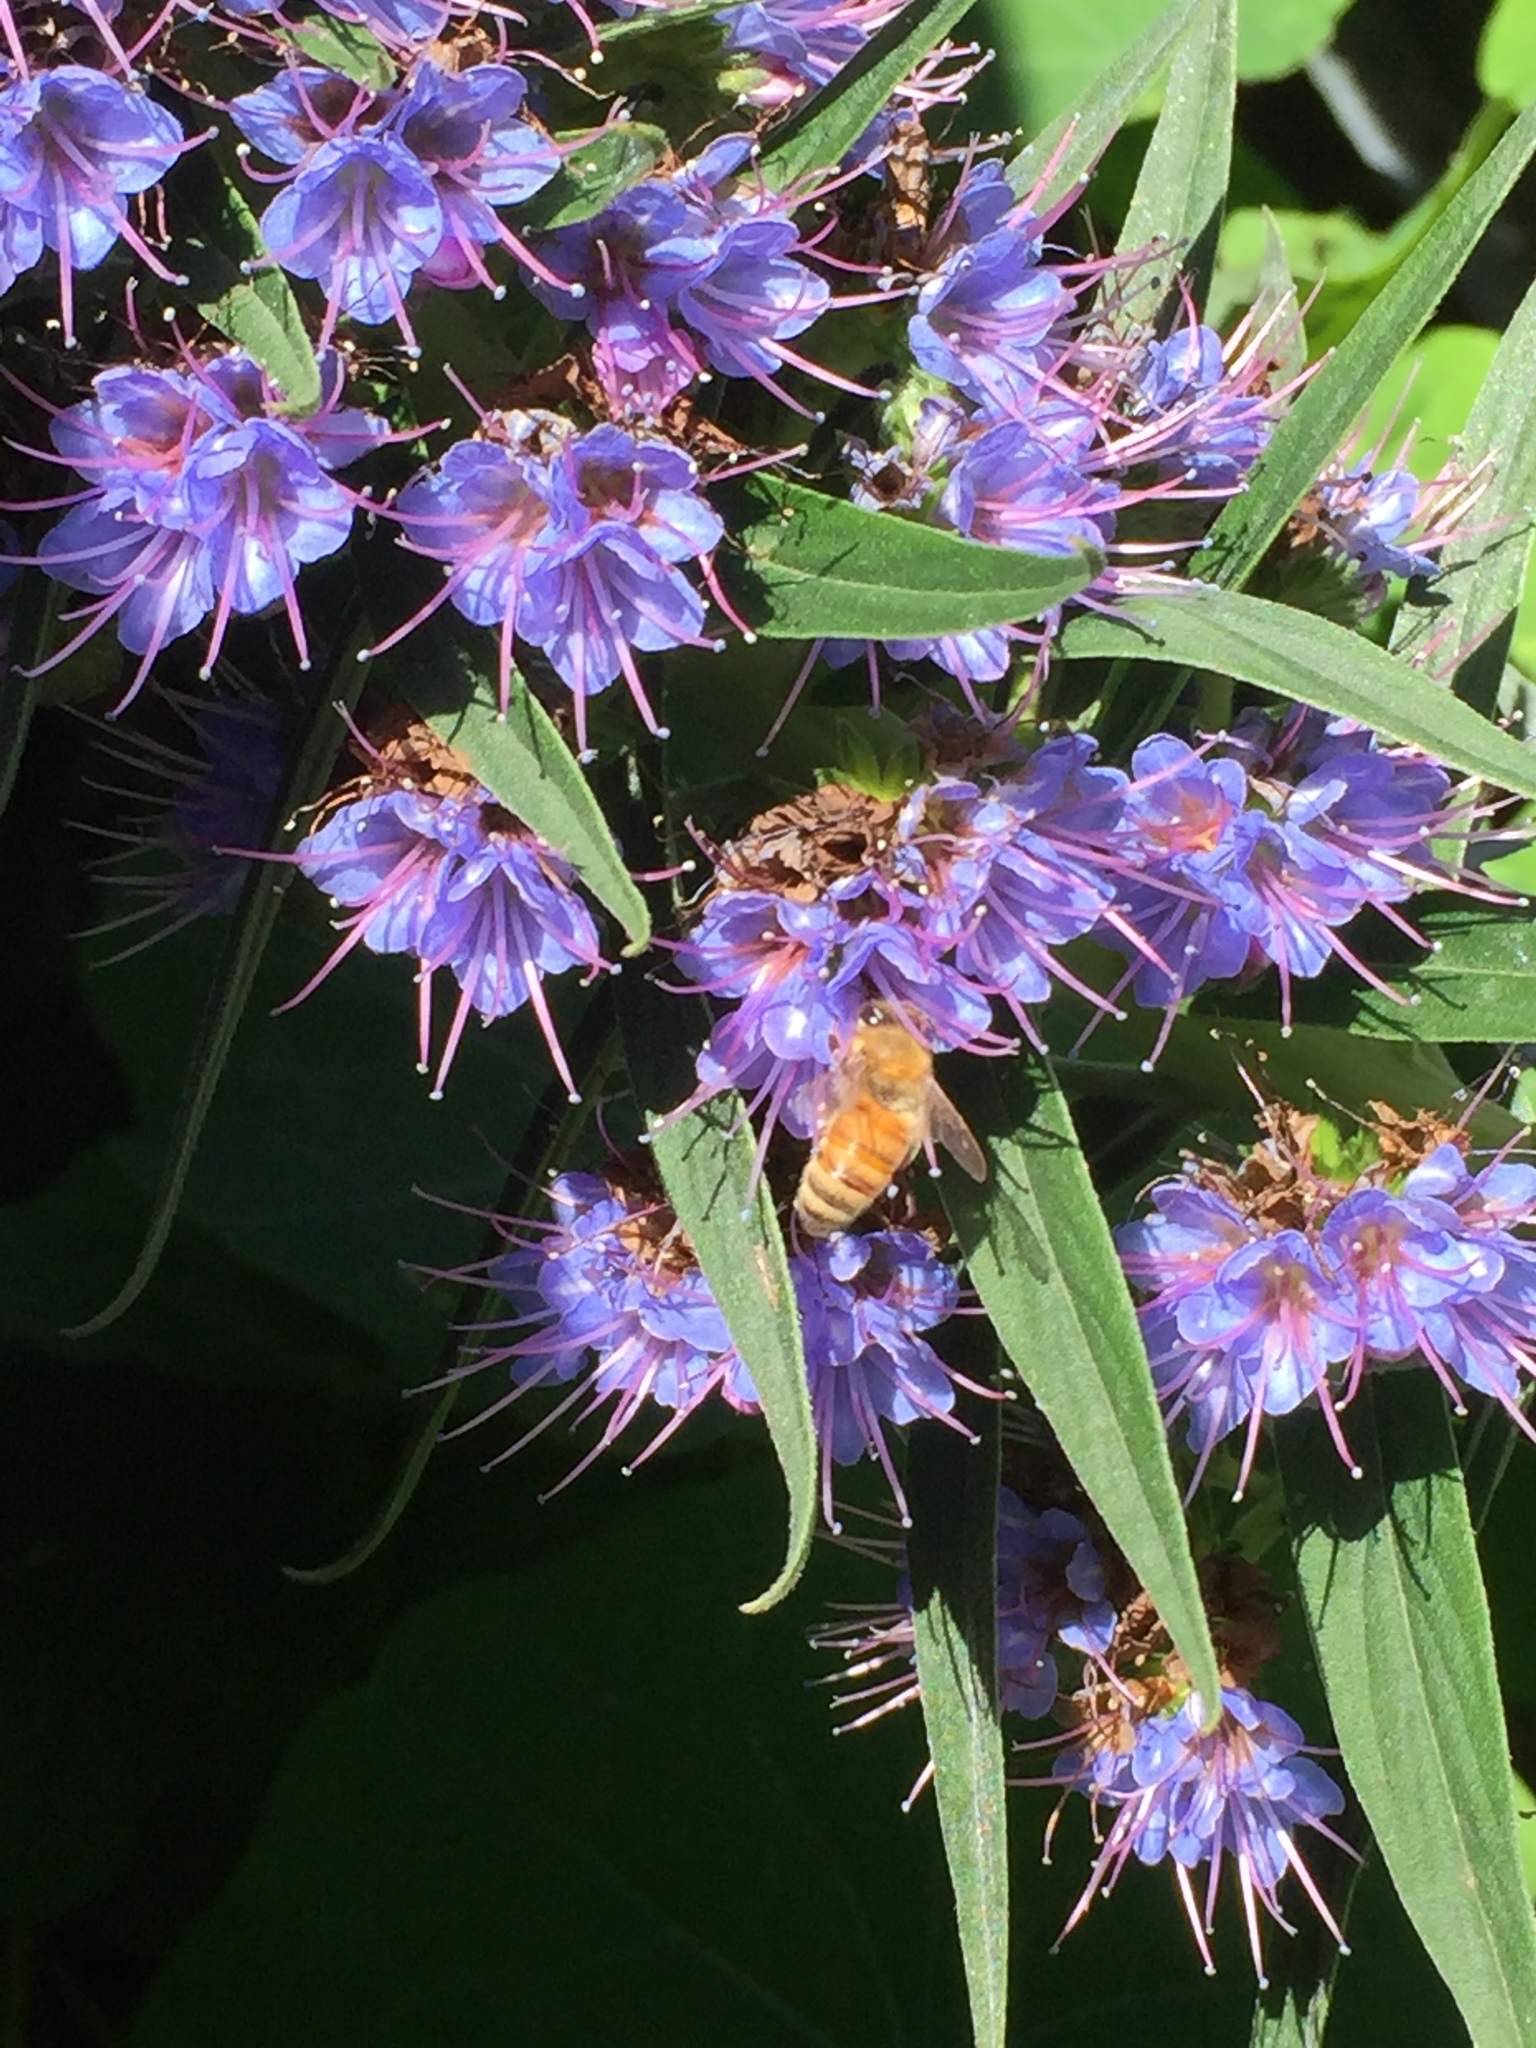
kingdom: Animalia
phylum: Arthropoda
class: Insecta
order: Hymenoptera
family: Apidae
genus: Apis
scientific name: Apis mellifera
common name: Honey bee
